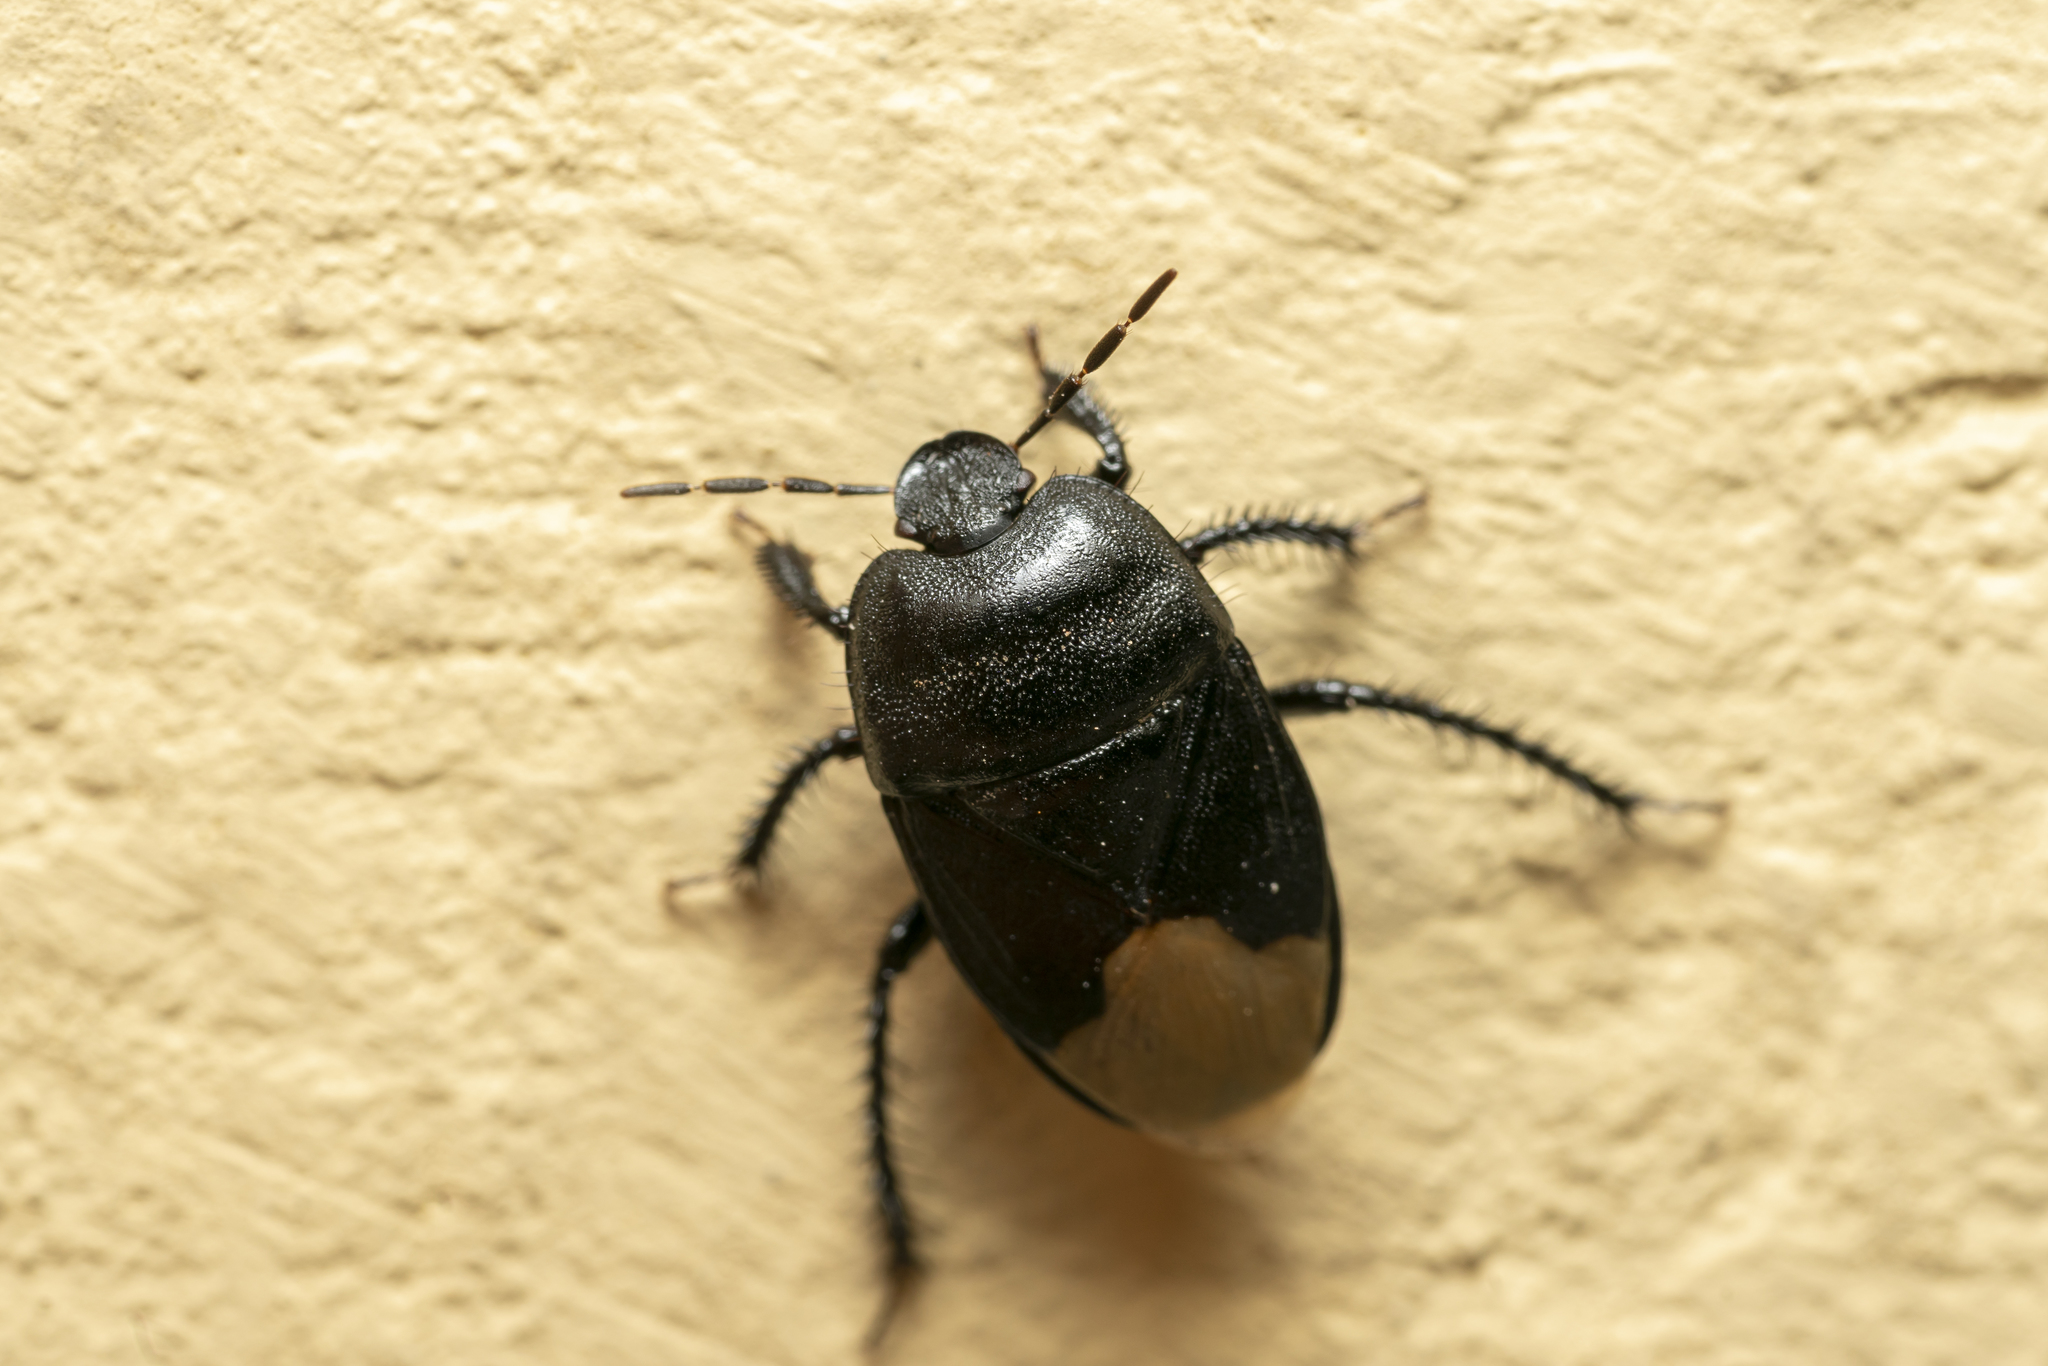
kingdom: Animalia
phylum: Arthropoda
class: Insecta
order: Hemiptera
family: Cydnidae
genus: Cydnus
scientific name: Cydnus aterrimus
